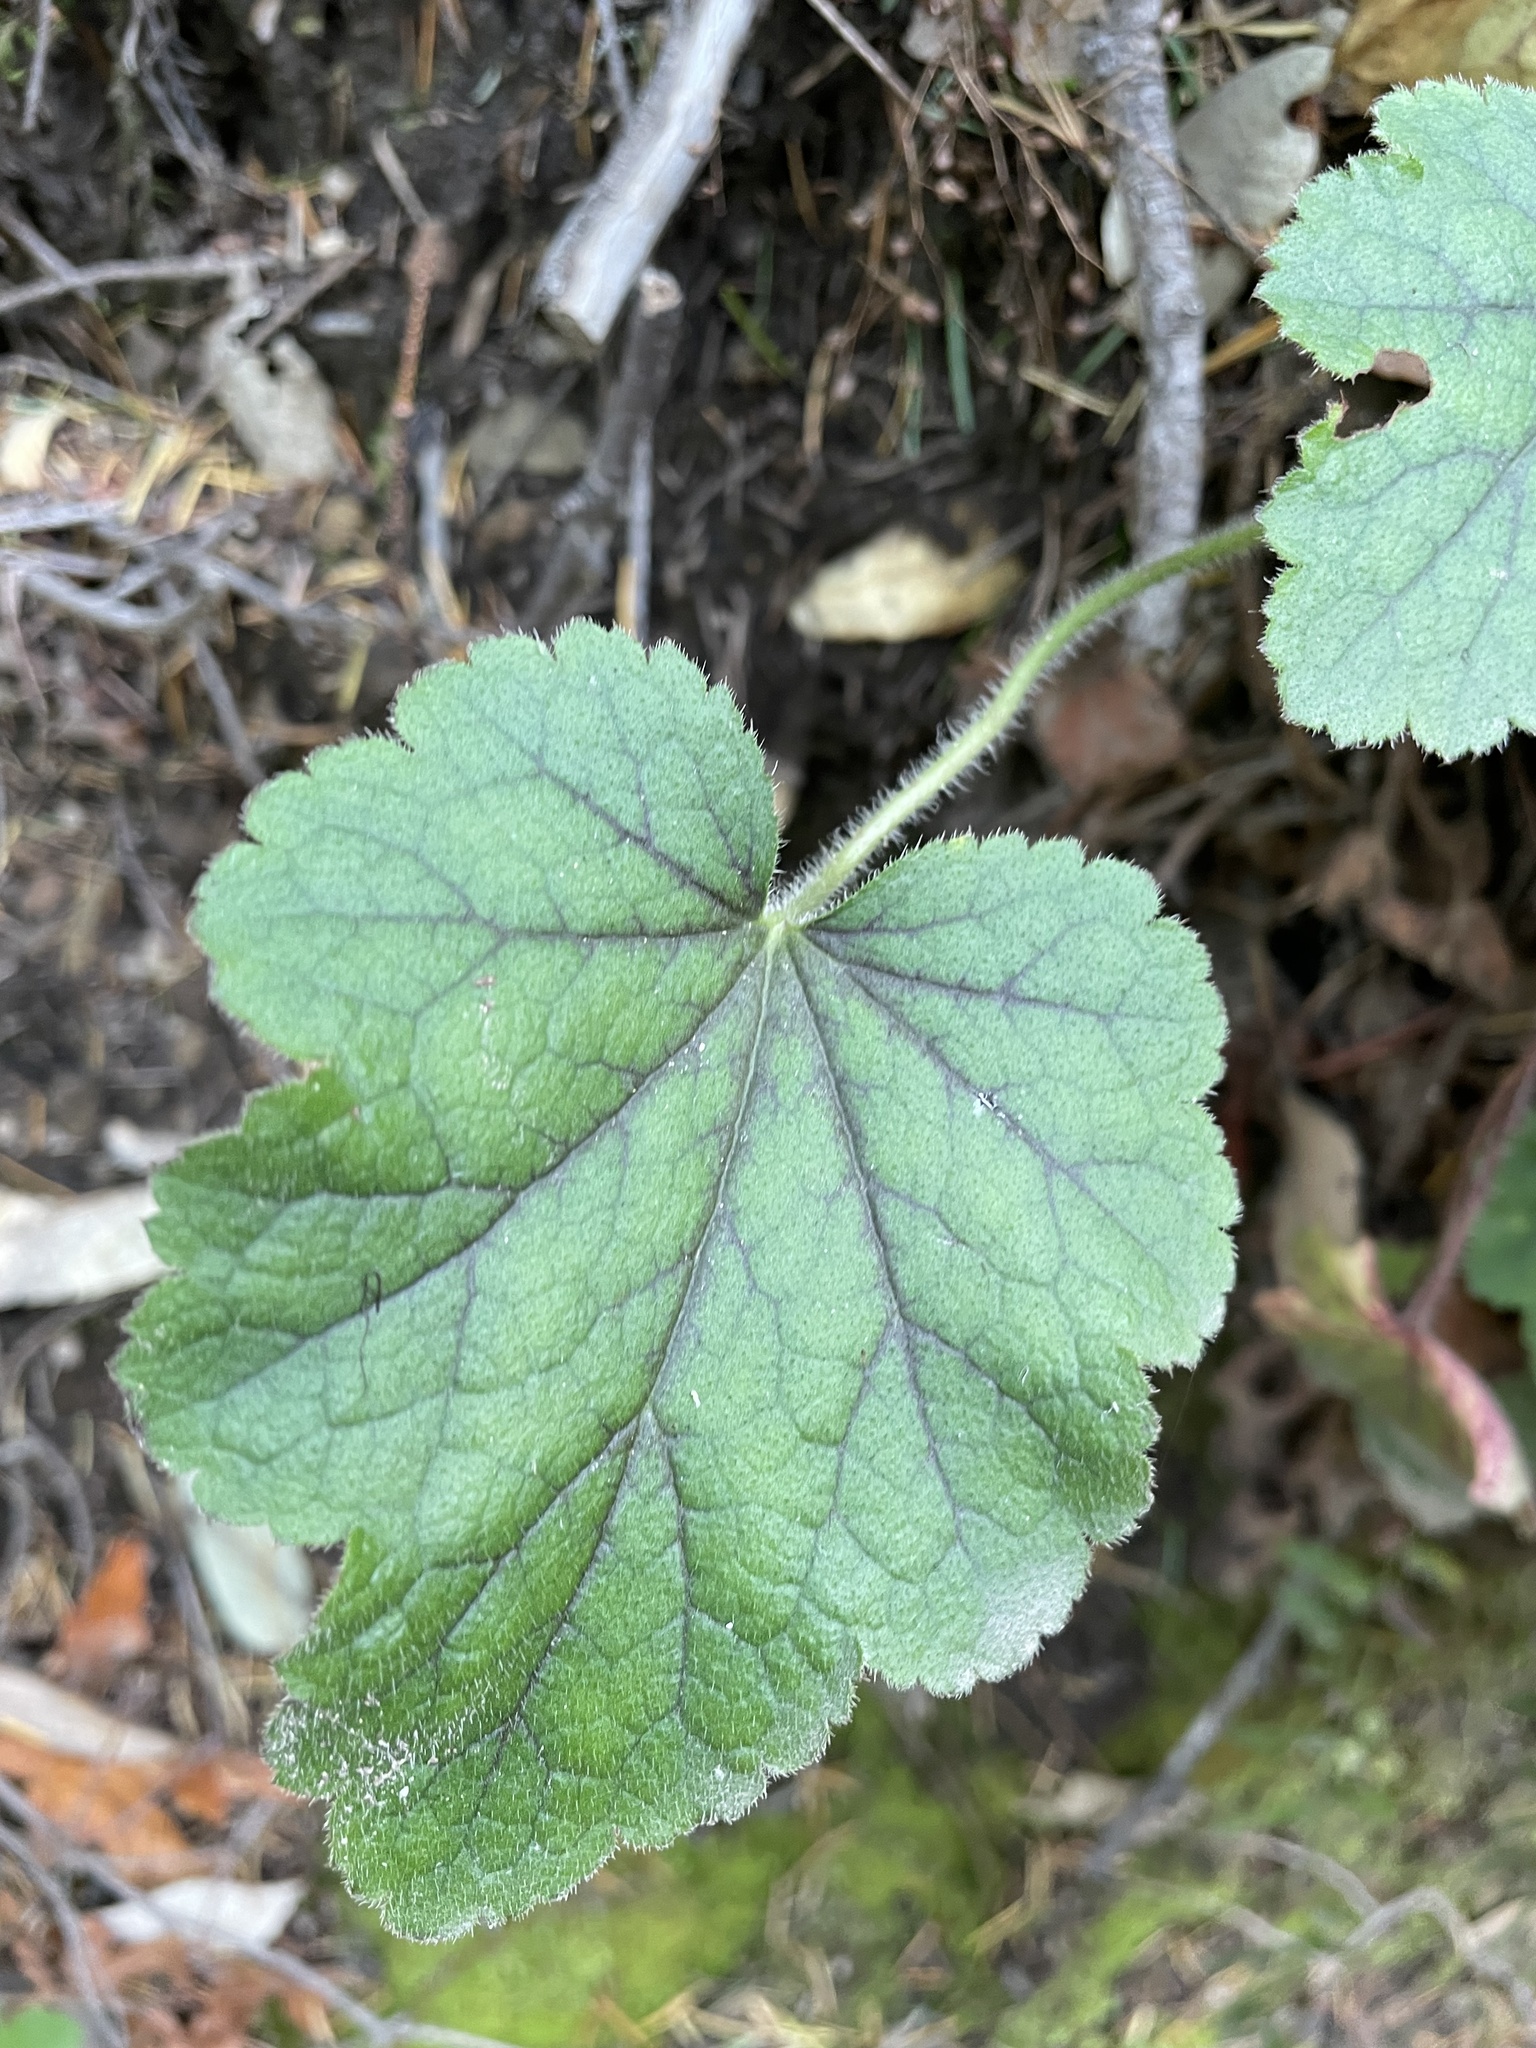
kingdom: Plantae
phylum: Tracheophyta
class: Magnoliopsida
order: Saxifragales
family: Saxifragaceae
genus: Heuchera
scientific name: Heuchera micrantha
